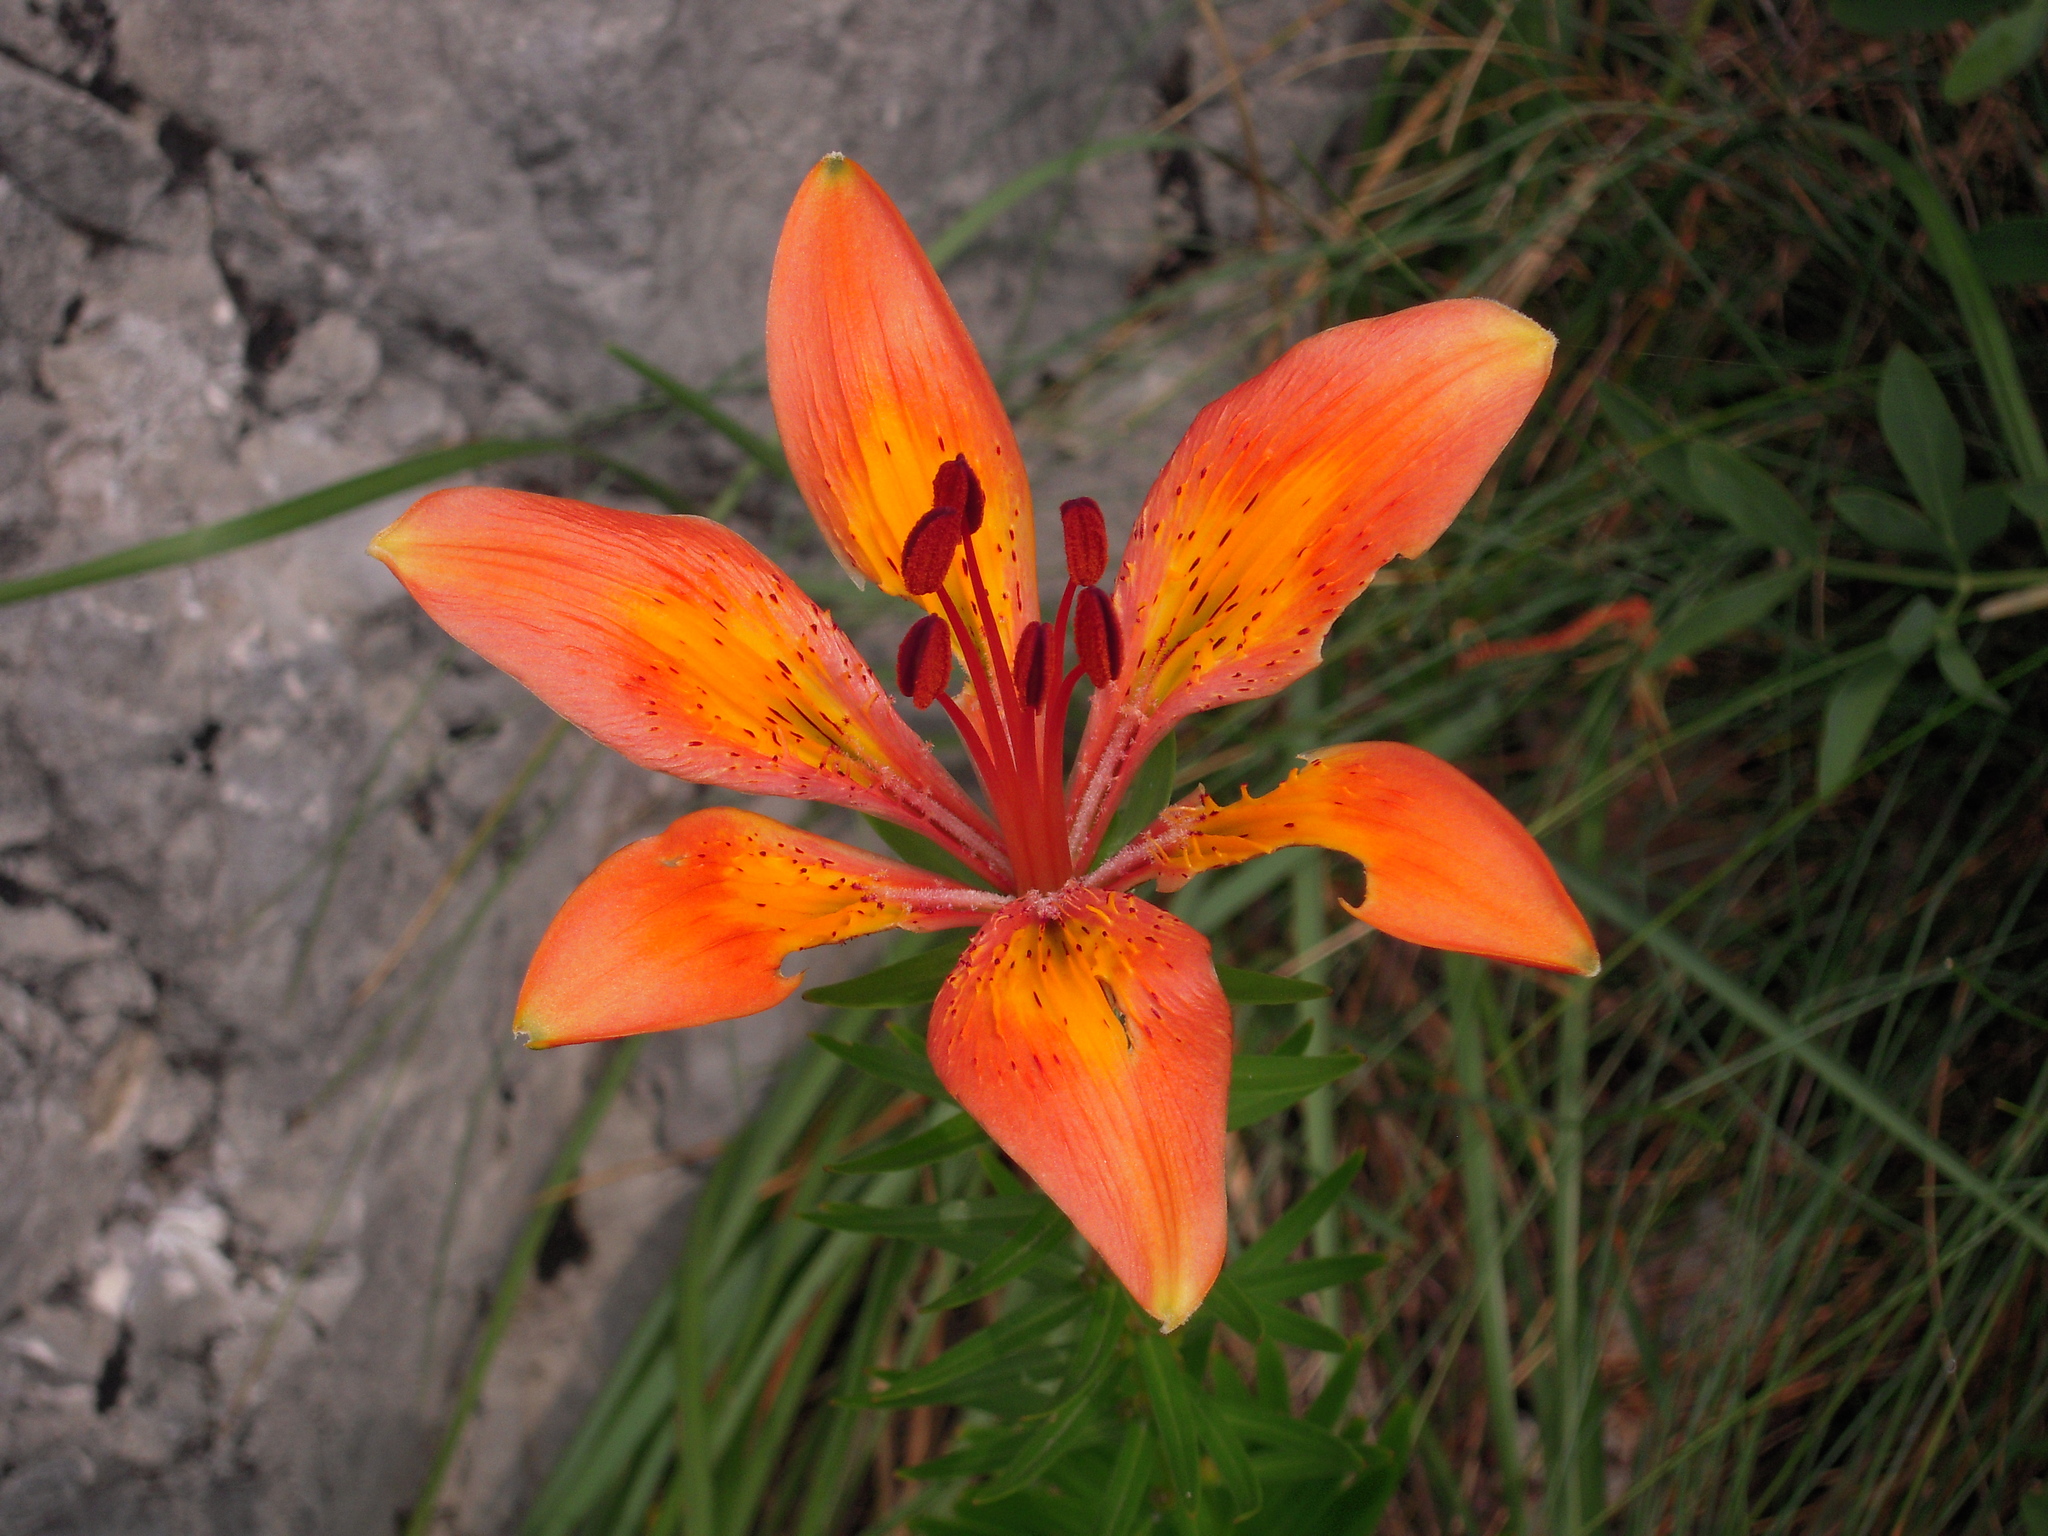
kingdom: Plantae
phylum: Tracheophyta
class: Liliopsida
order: Liliales
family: Liliaceae
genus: Lilium
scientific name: Lilium bulbiferum
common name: Orange lily
